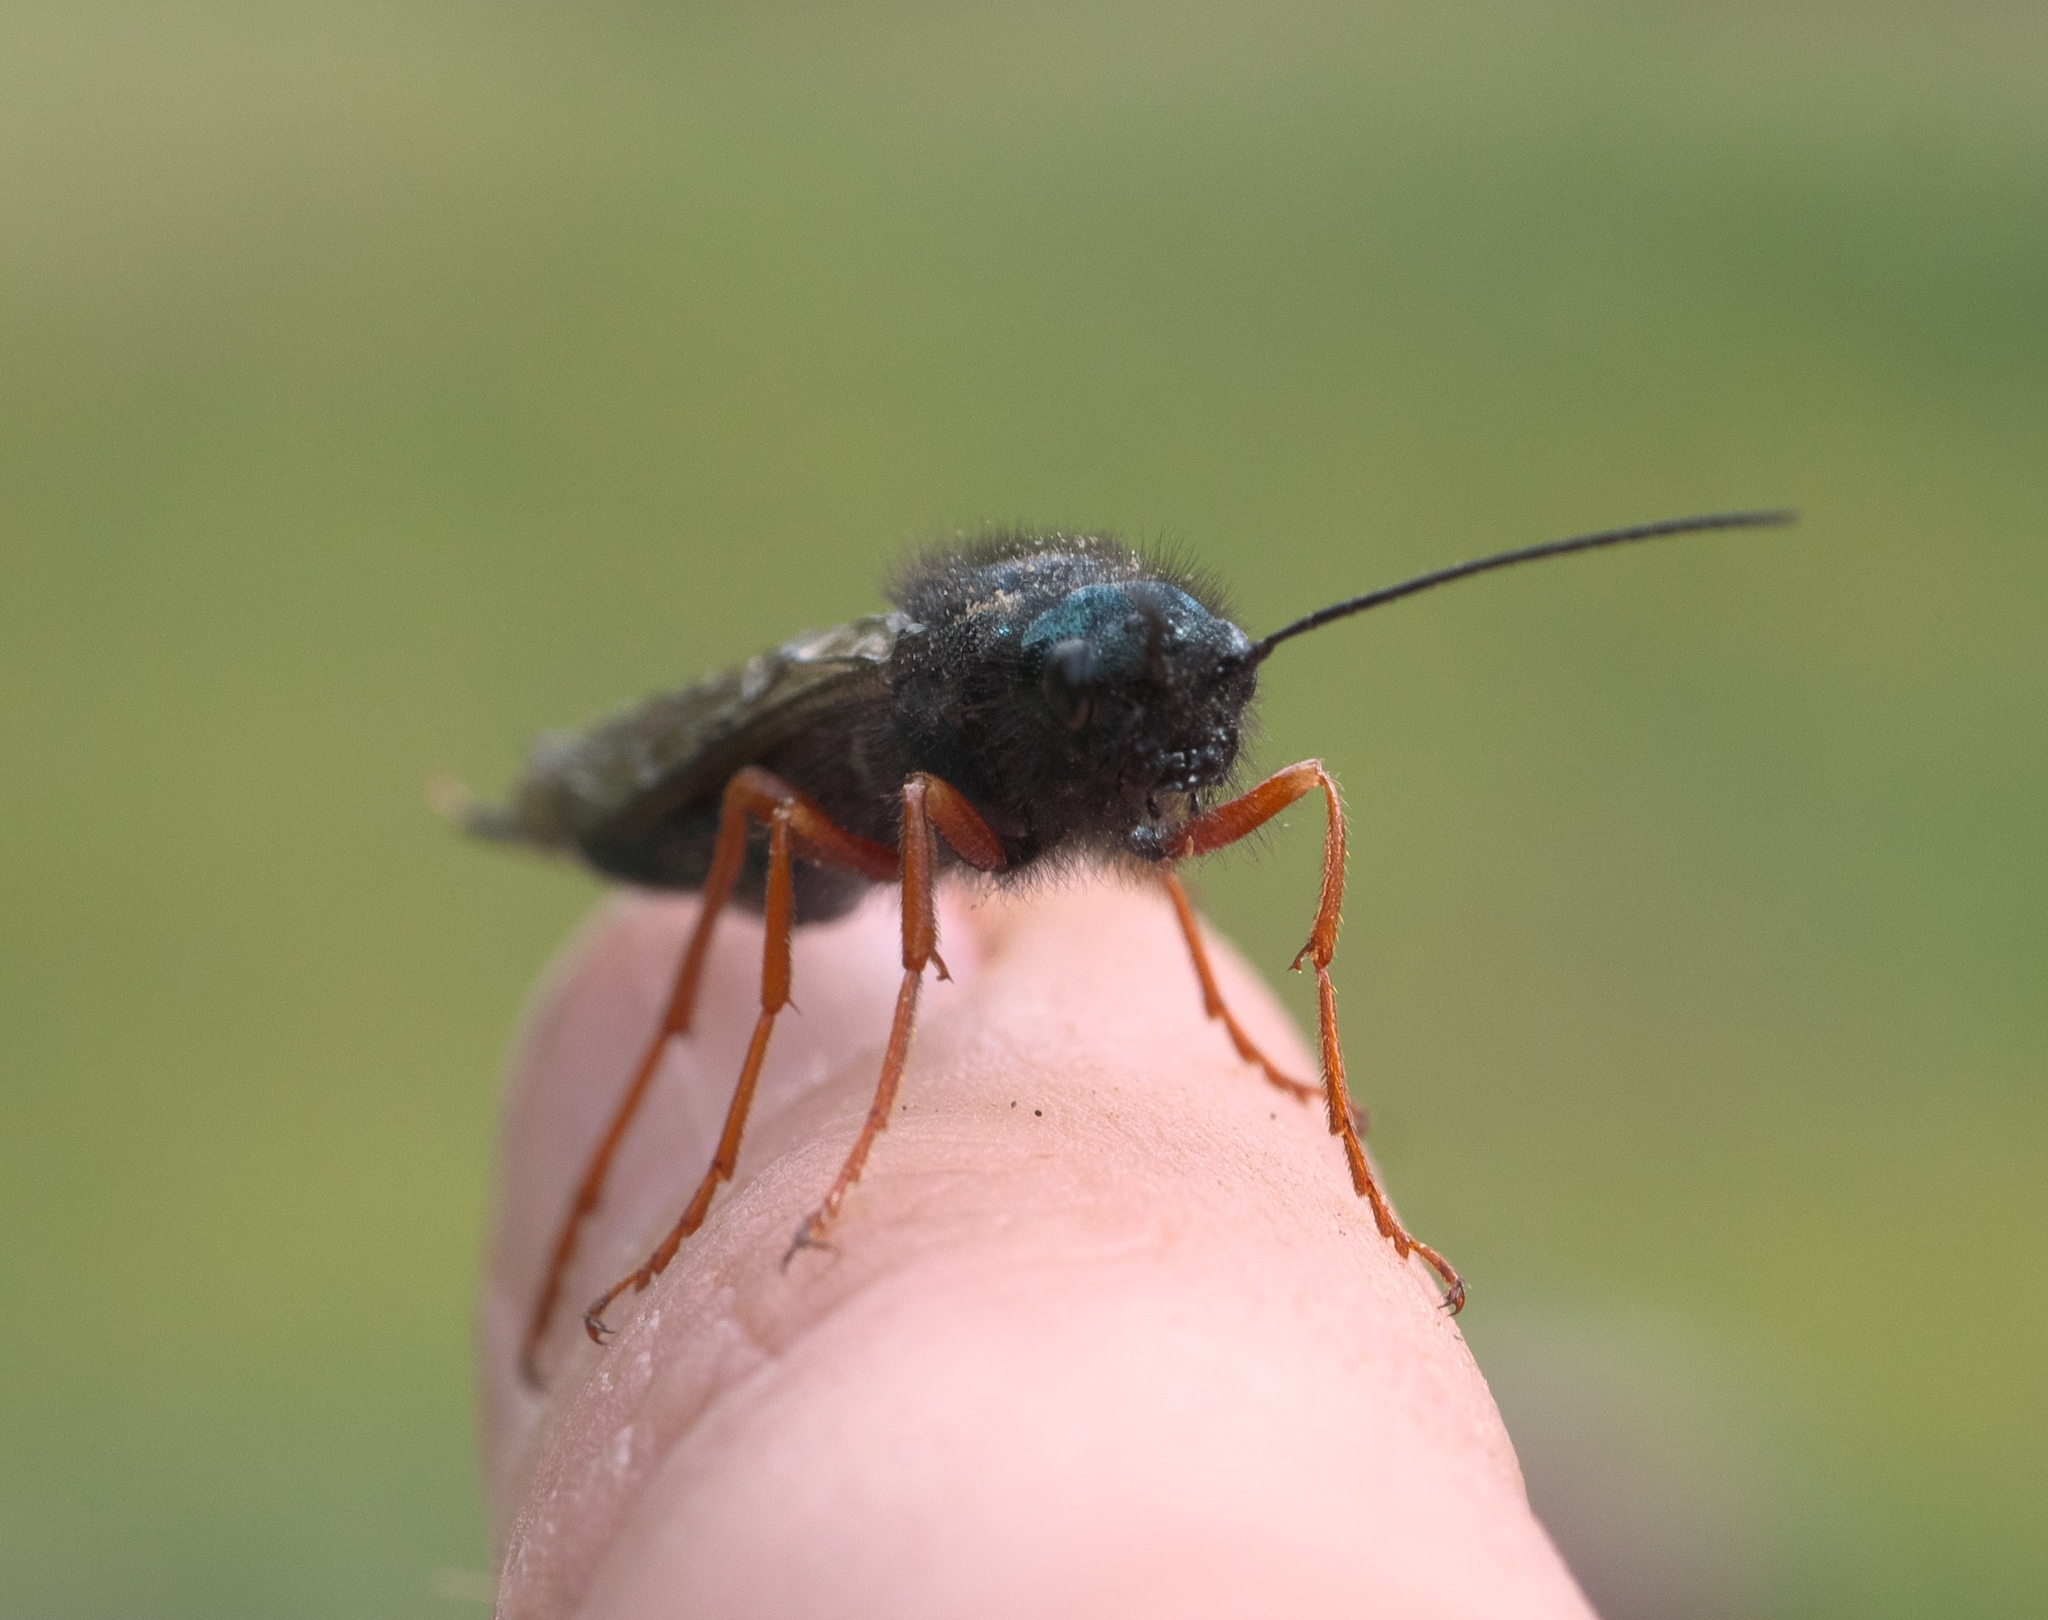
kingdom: Animalia
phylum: Arthropoda
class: Insecta
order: Hymenoptera
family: Siricidae
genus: Sirex
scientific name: Sirex californicus
